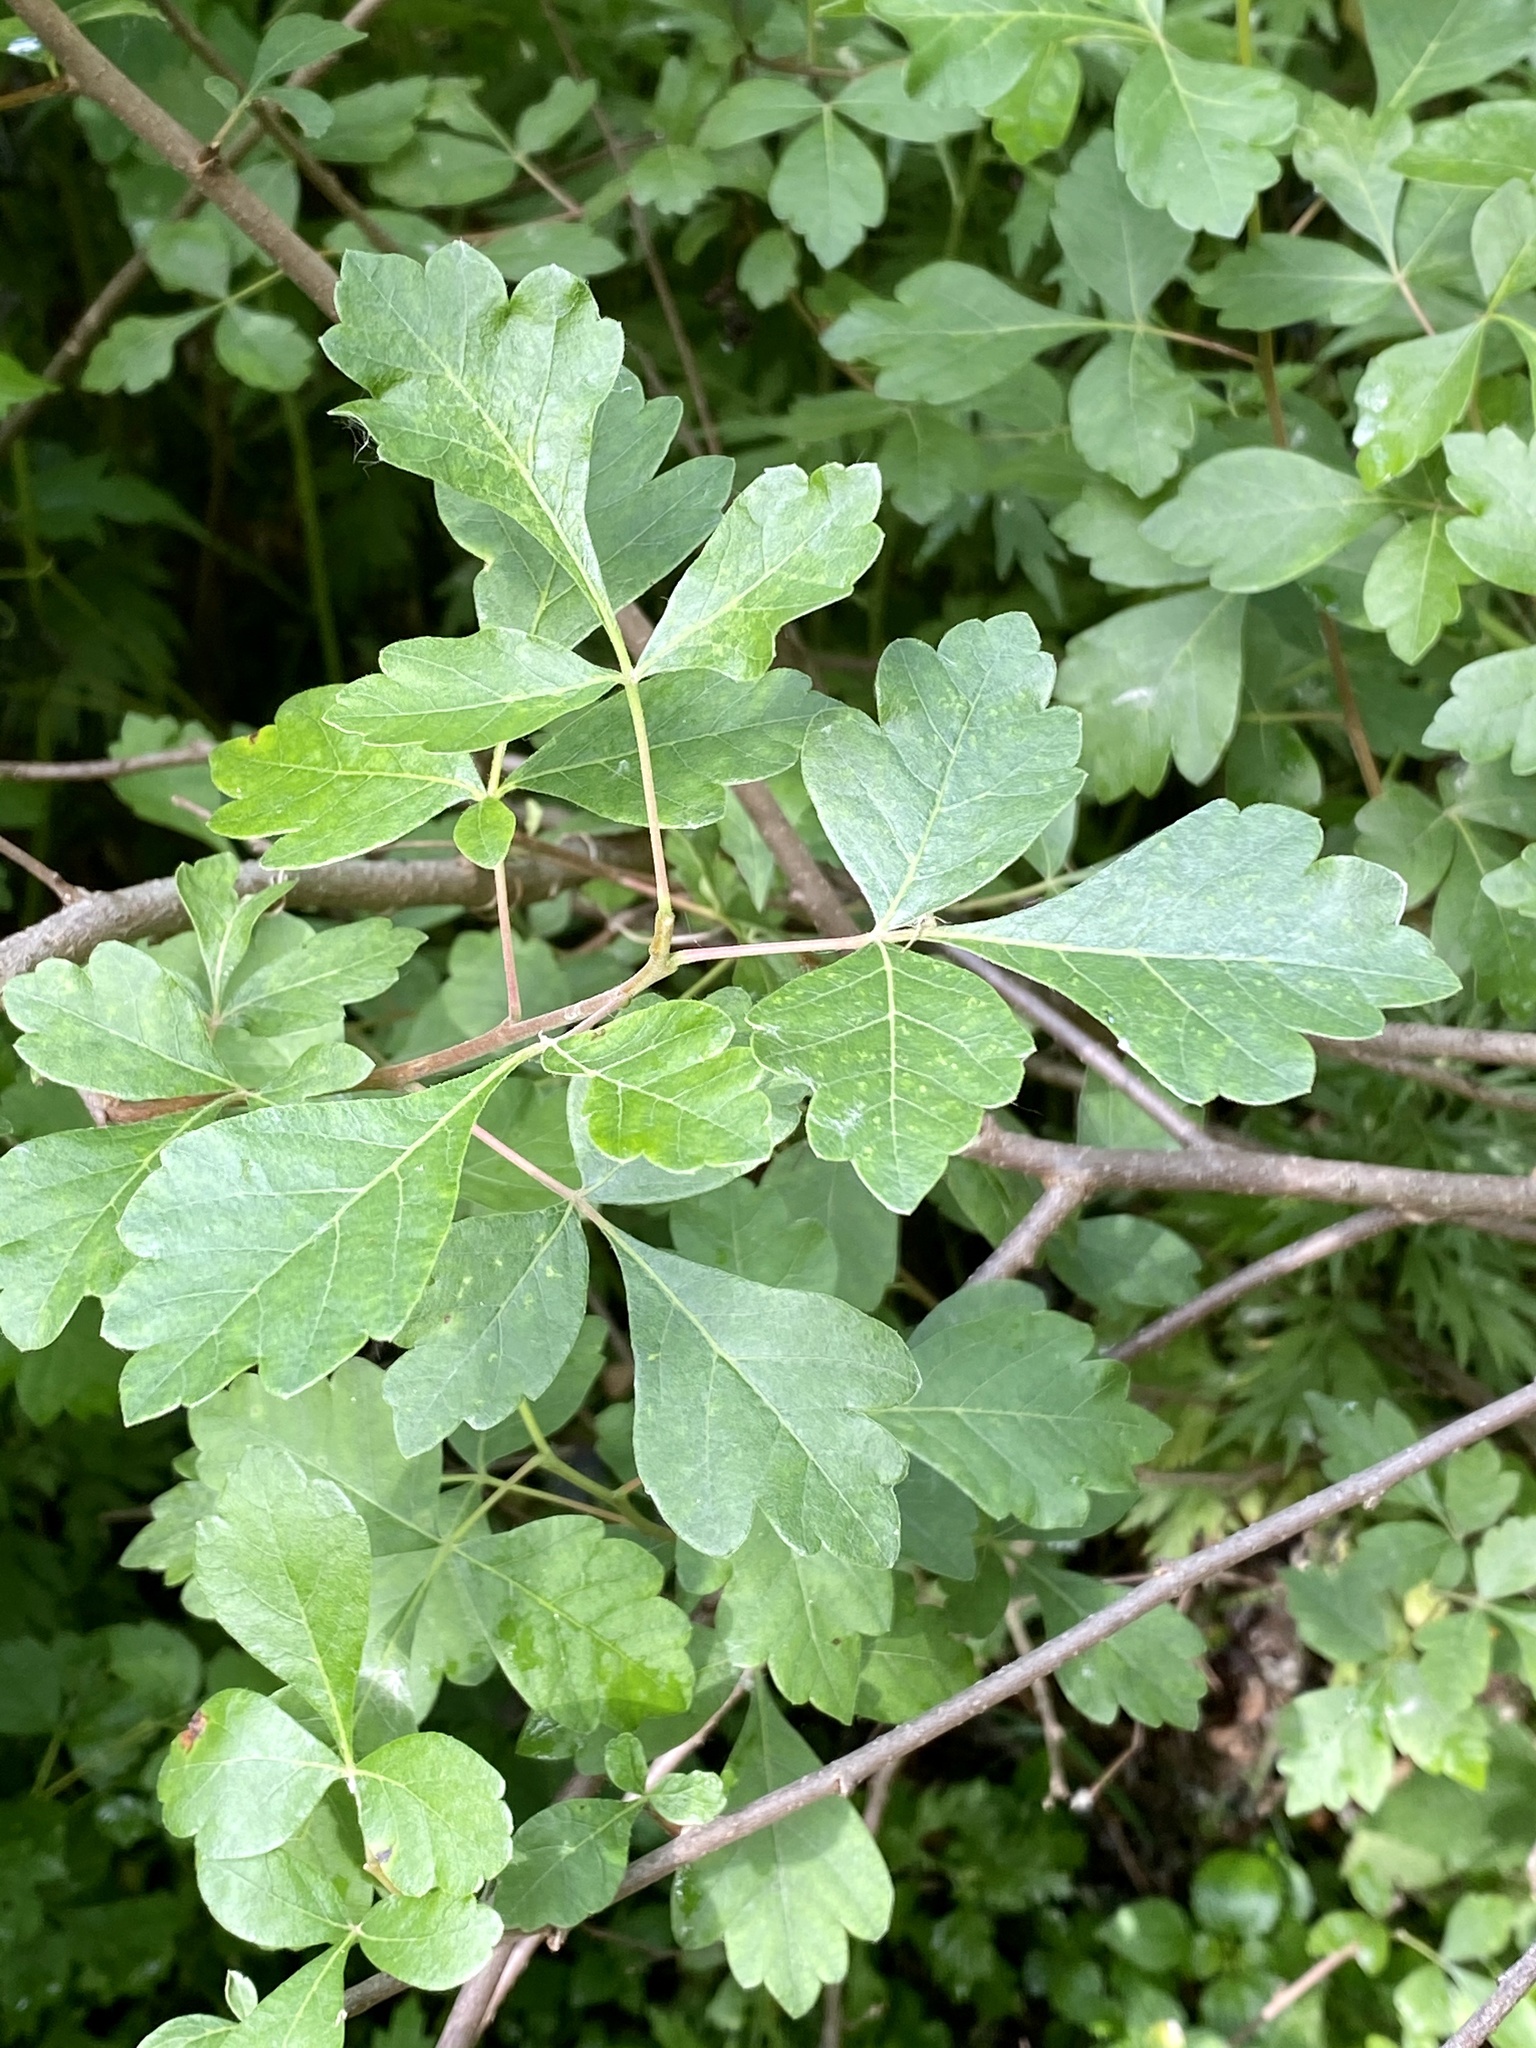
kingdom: Plantae
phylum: Tracheophyta
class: Magnoliopsida
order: Sapindales
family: Anacardiaceae
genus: Rhus
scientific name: Rhus aromatica
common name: Aromatic sumac
